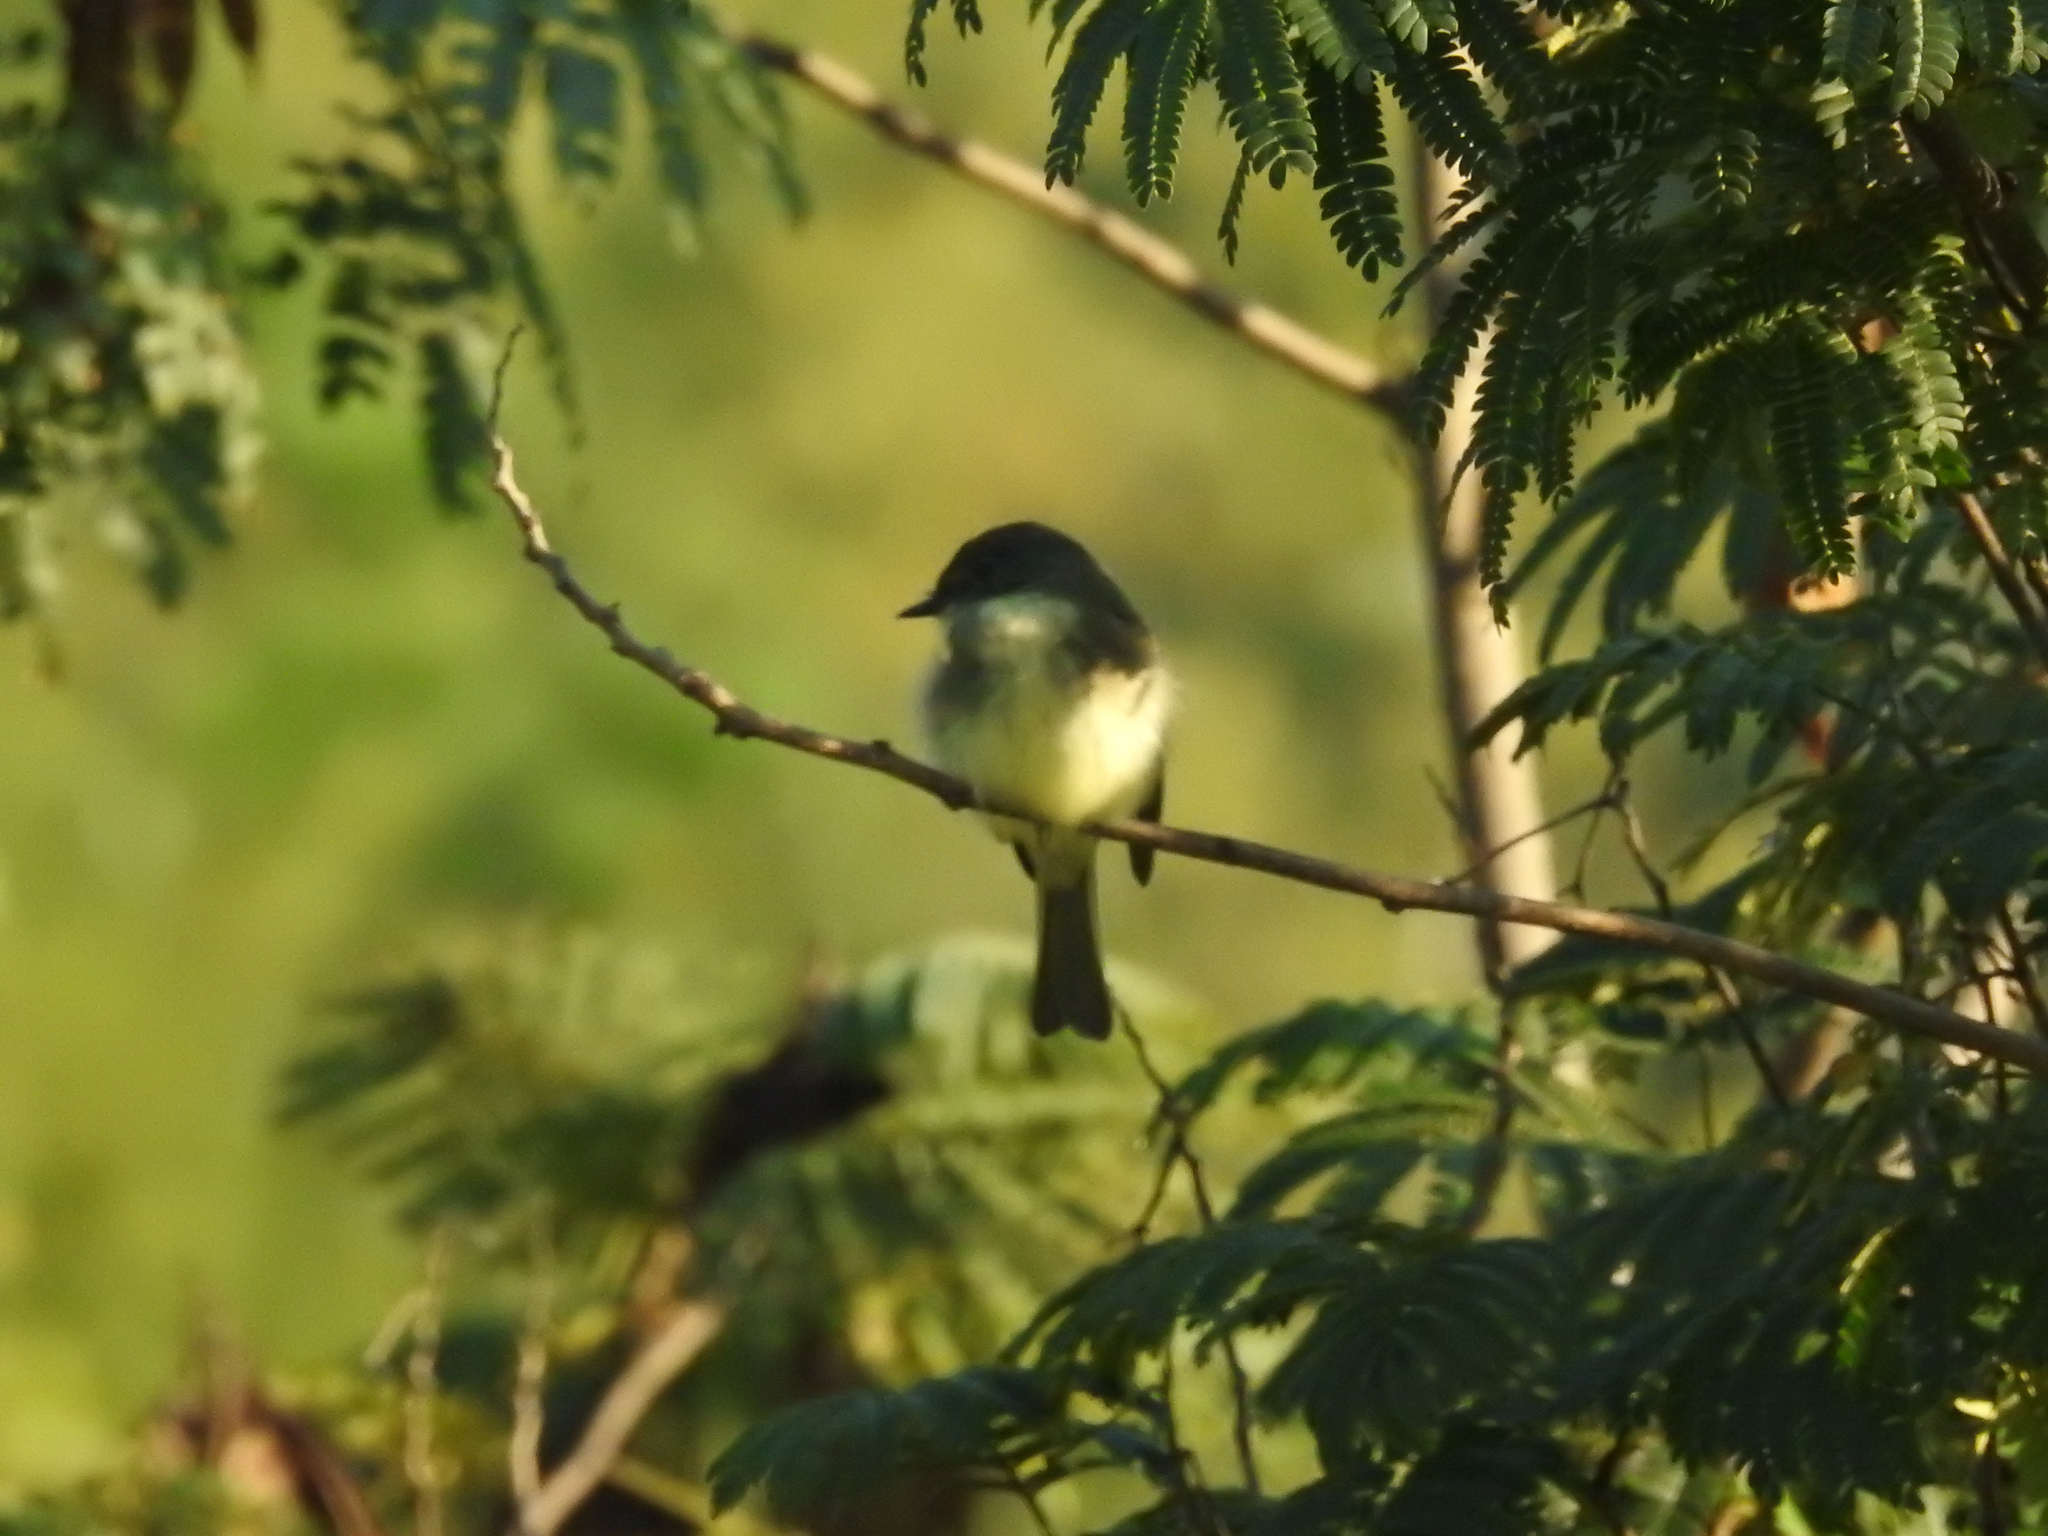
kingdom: Animalia
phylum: Chordata
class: Aves
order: Passeriformes
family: Tyrannidae
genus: Sayornis
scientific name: Sayornis phoebe
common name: Eastern phoebe
